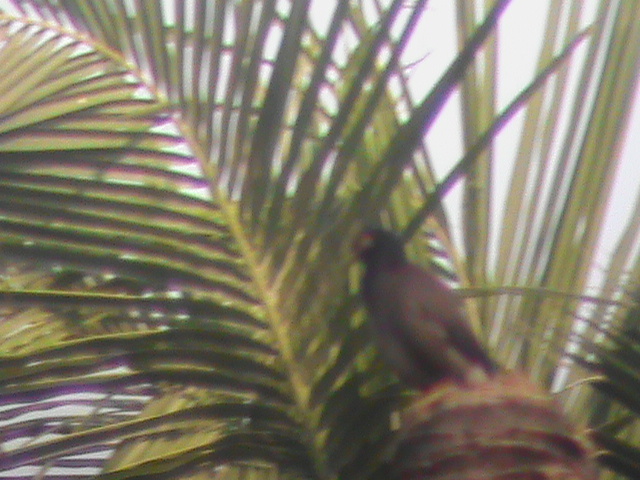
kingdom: Animalia
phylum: Chordata
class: Aves
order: Passeriformes
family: Sturnidae
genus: Acridotheres
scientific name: Acridotheres tristis
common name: Common myna
